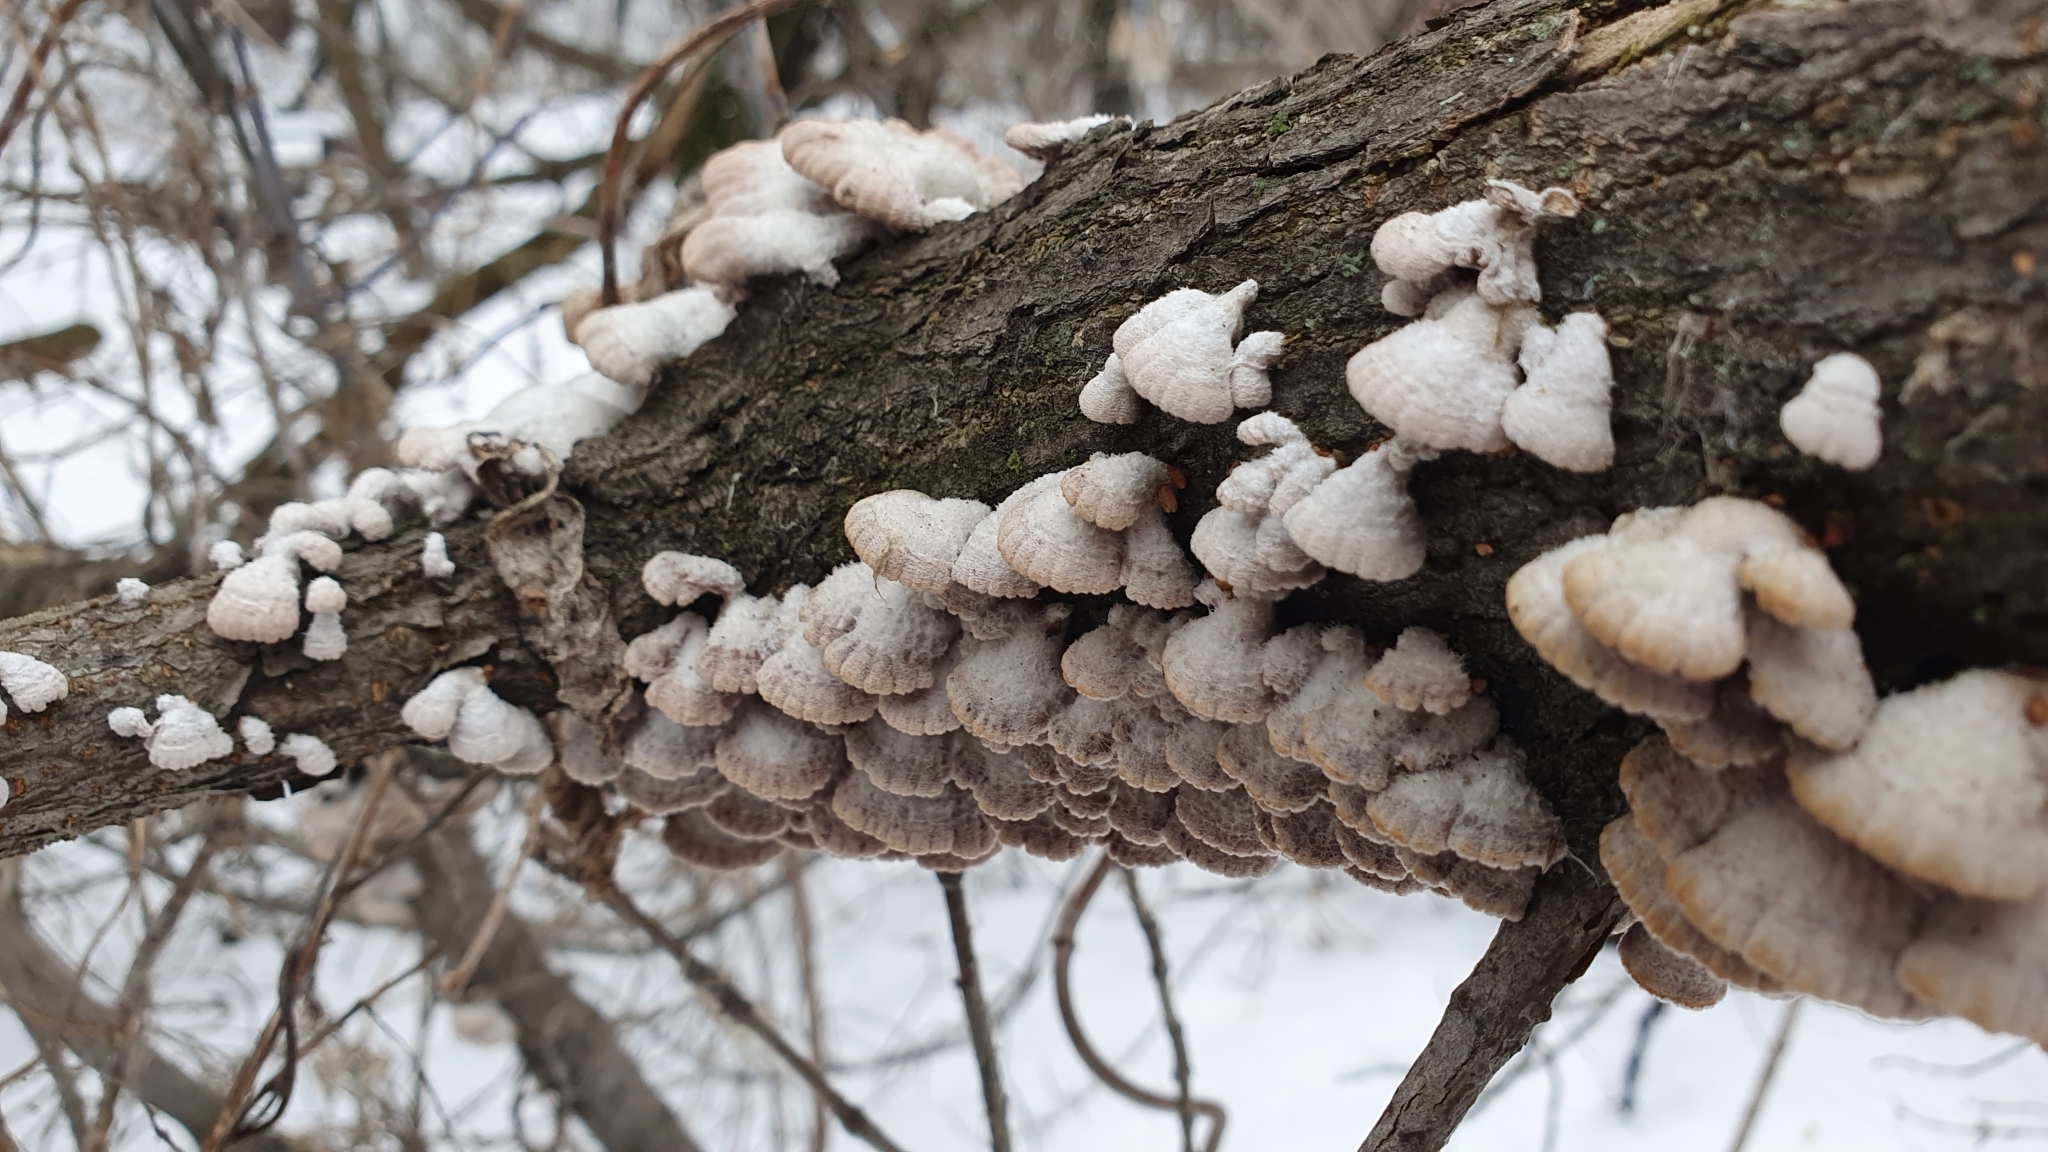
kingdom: Fungi
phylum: Basidiomycota
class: Agaricomycetes
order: Agaricales
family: Schizophyllaceae
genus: Schizophyllum
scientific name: Schizophyllum commune
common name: Common porecrust
